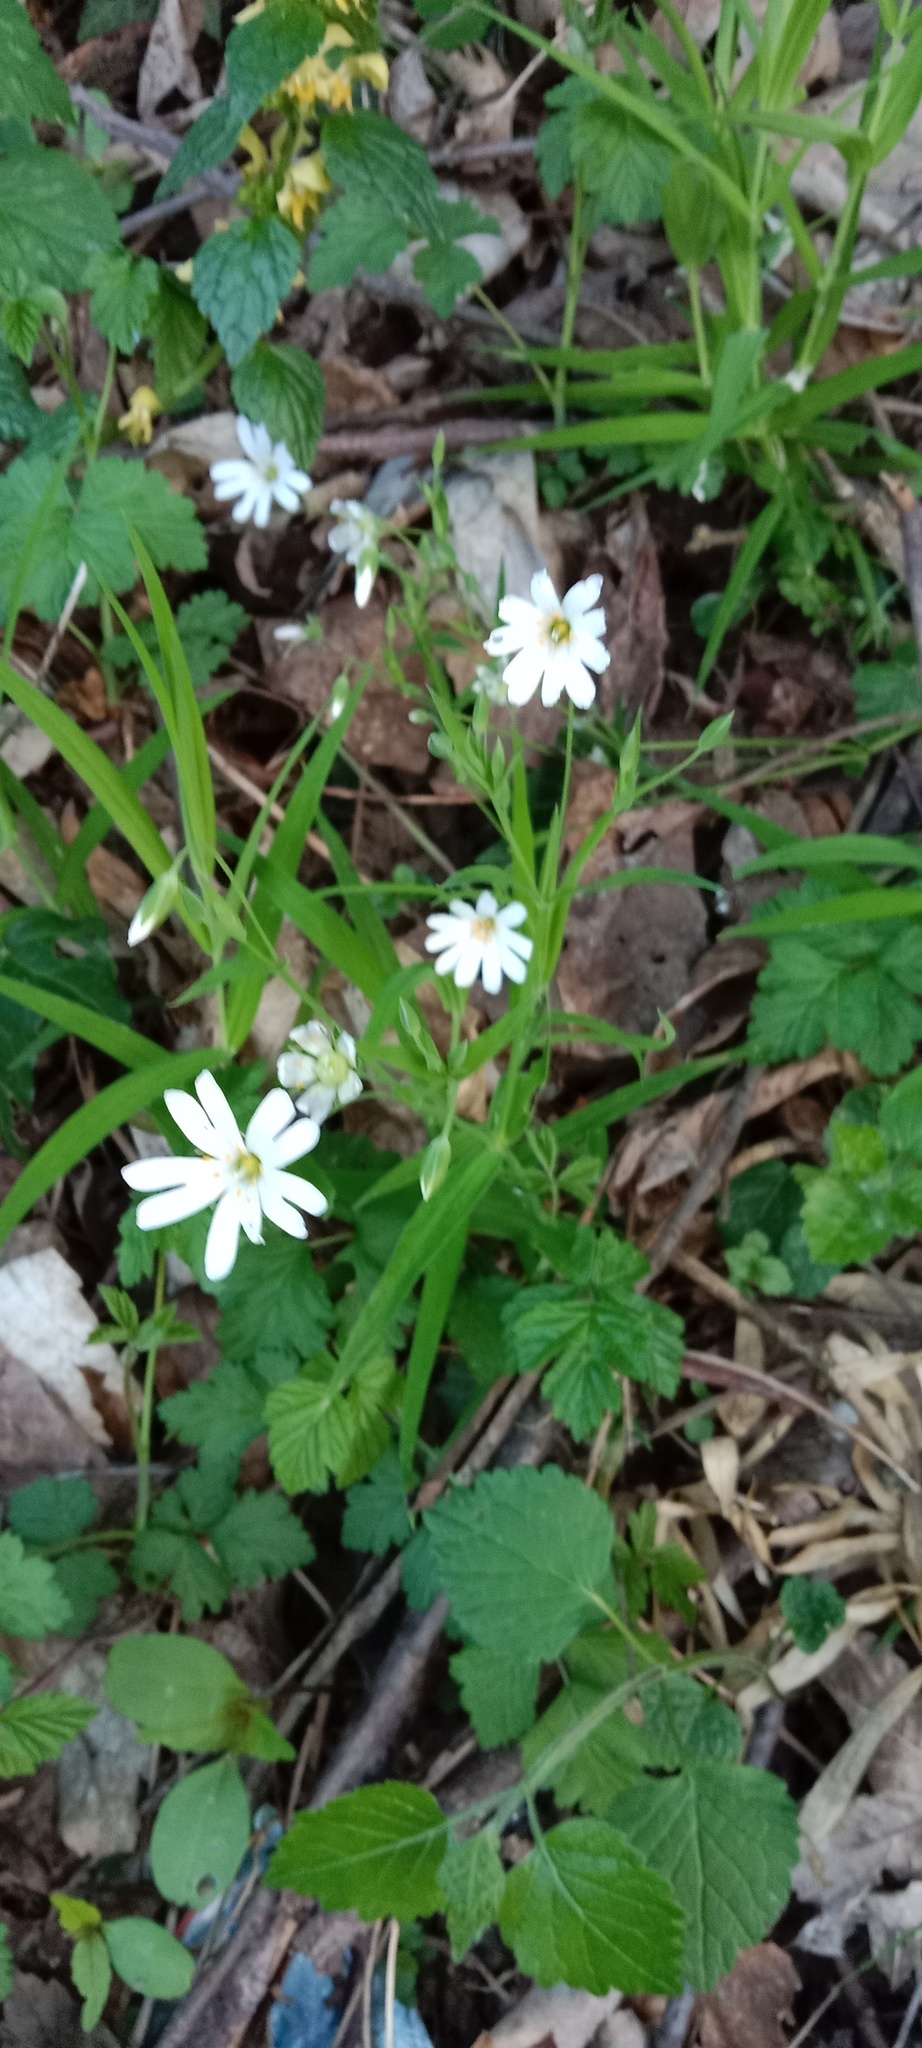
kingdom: Plantae
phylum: Tracheophyta
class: Magnoliopsida
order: Caryophyllales
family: Caryophyllaceae
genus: Rabelera
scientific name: Rabelera holostea
